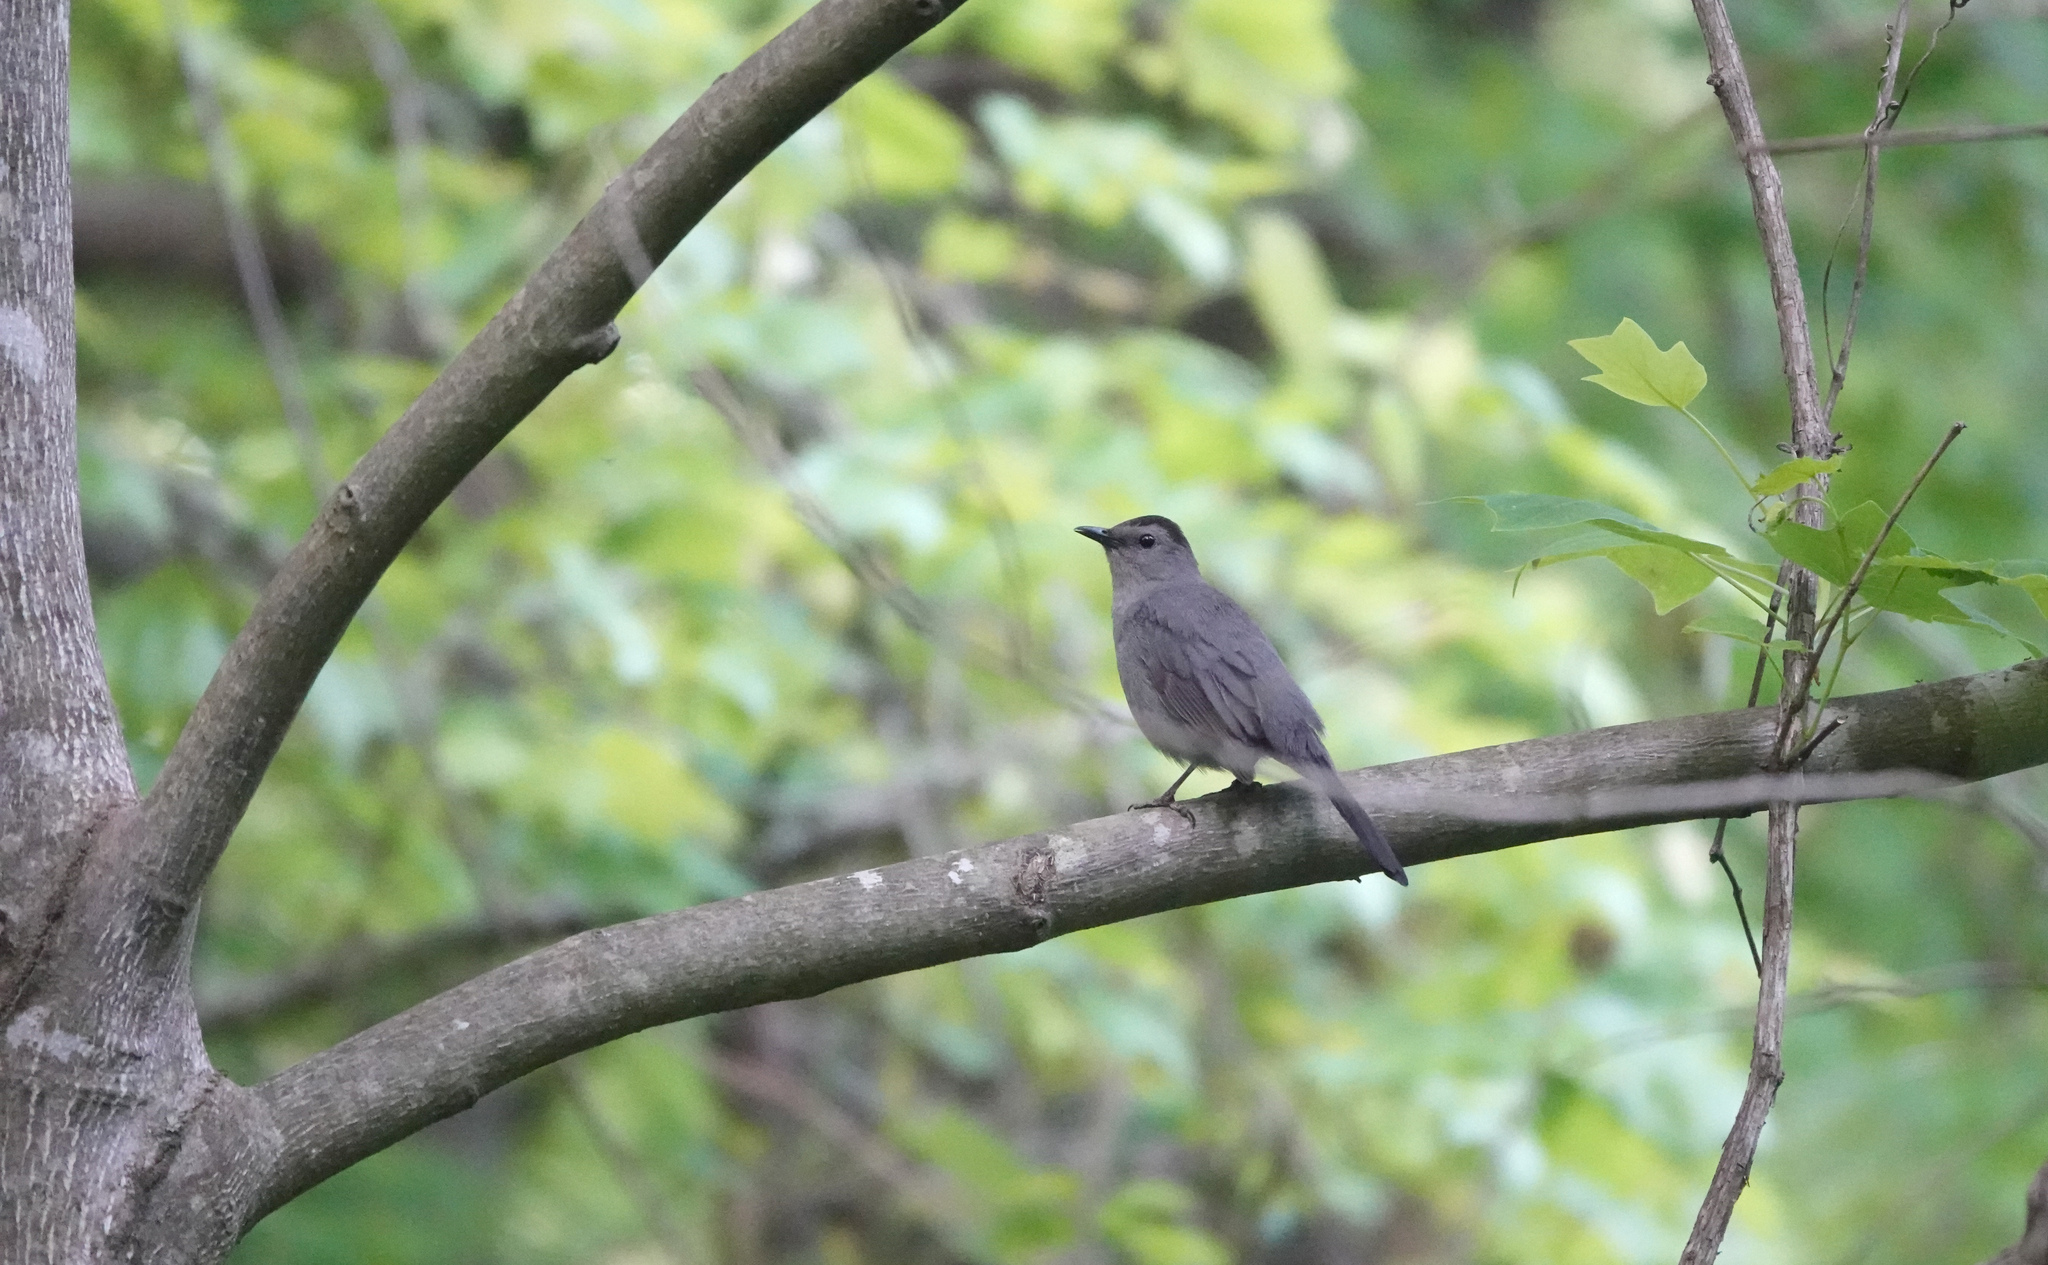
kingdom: Animalia
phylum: Chordata
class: Aves
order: Passeriformes
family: Mimidae
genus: Dumetella
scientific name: Dumetella carolinensis
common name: Gray catbird
